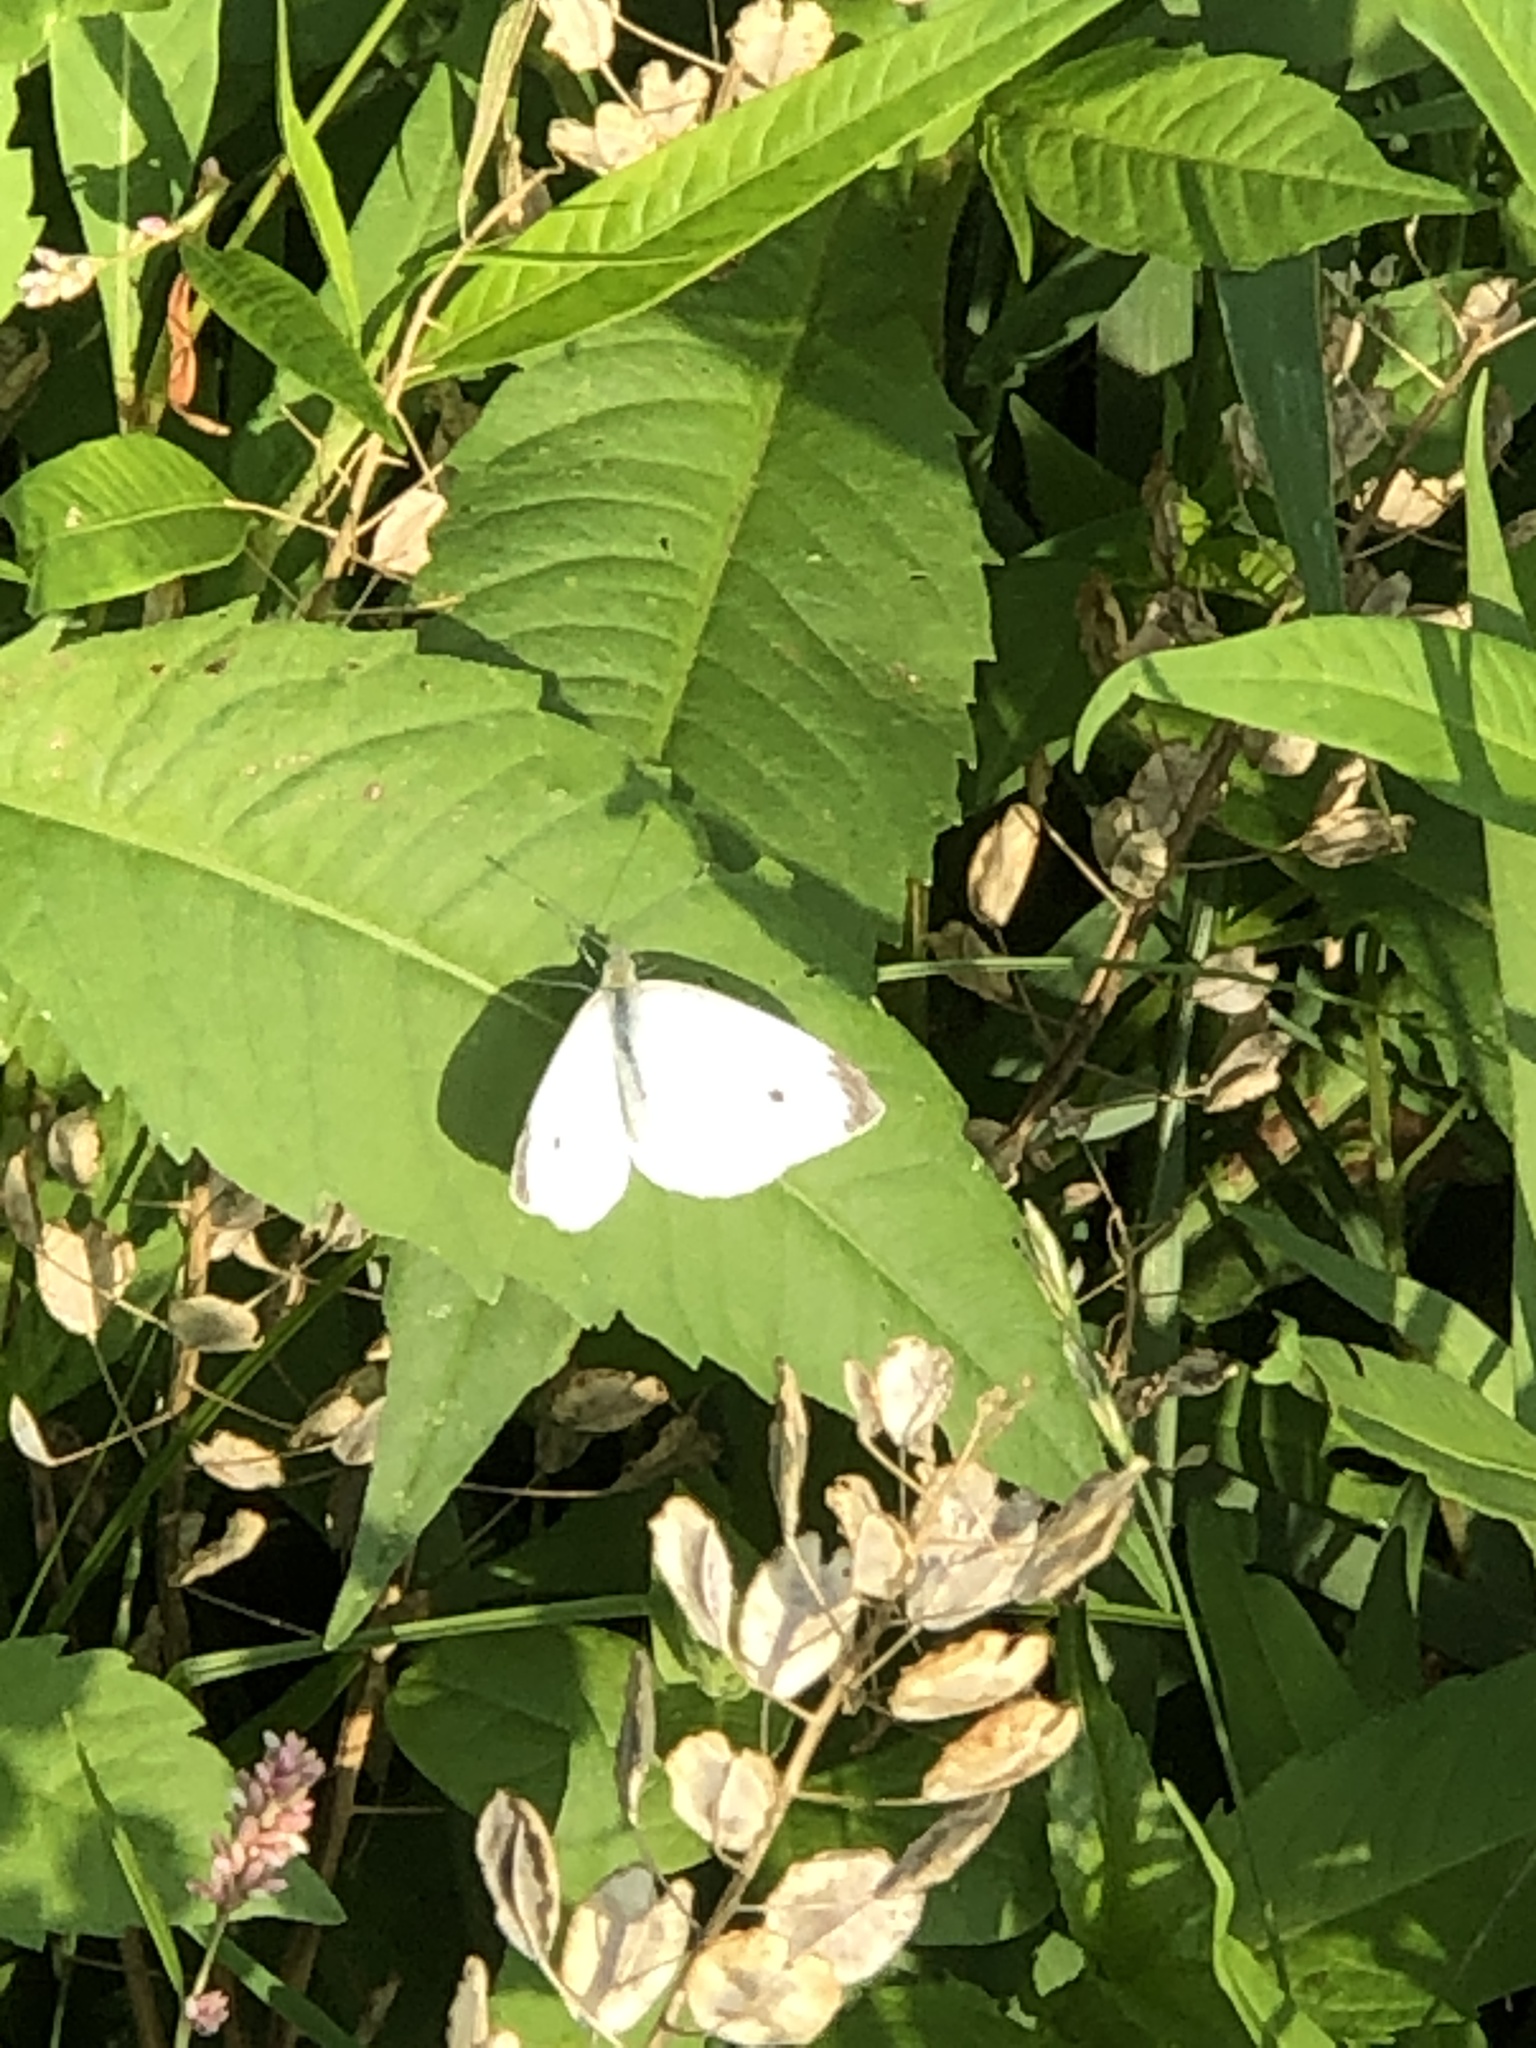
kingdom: Animalia
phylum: Arthropoda
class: Insecta
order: Lepidoptera
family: Pieridae
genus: Pieris
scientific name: Pieris rapae
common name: Small white
